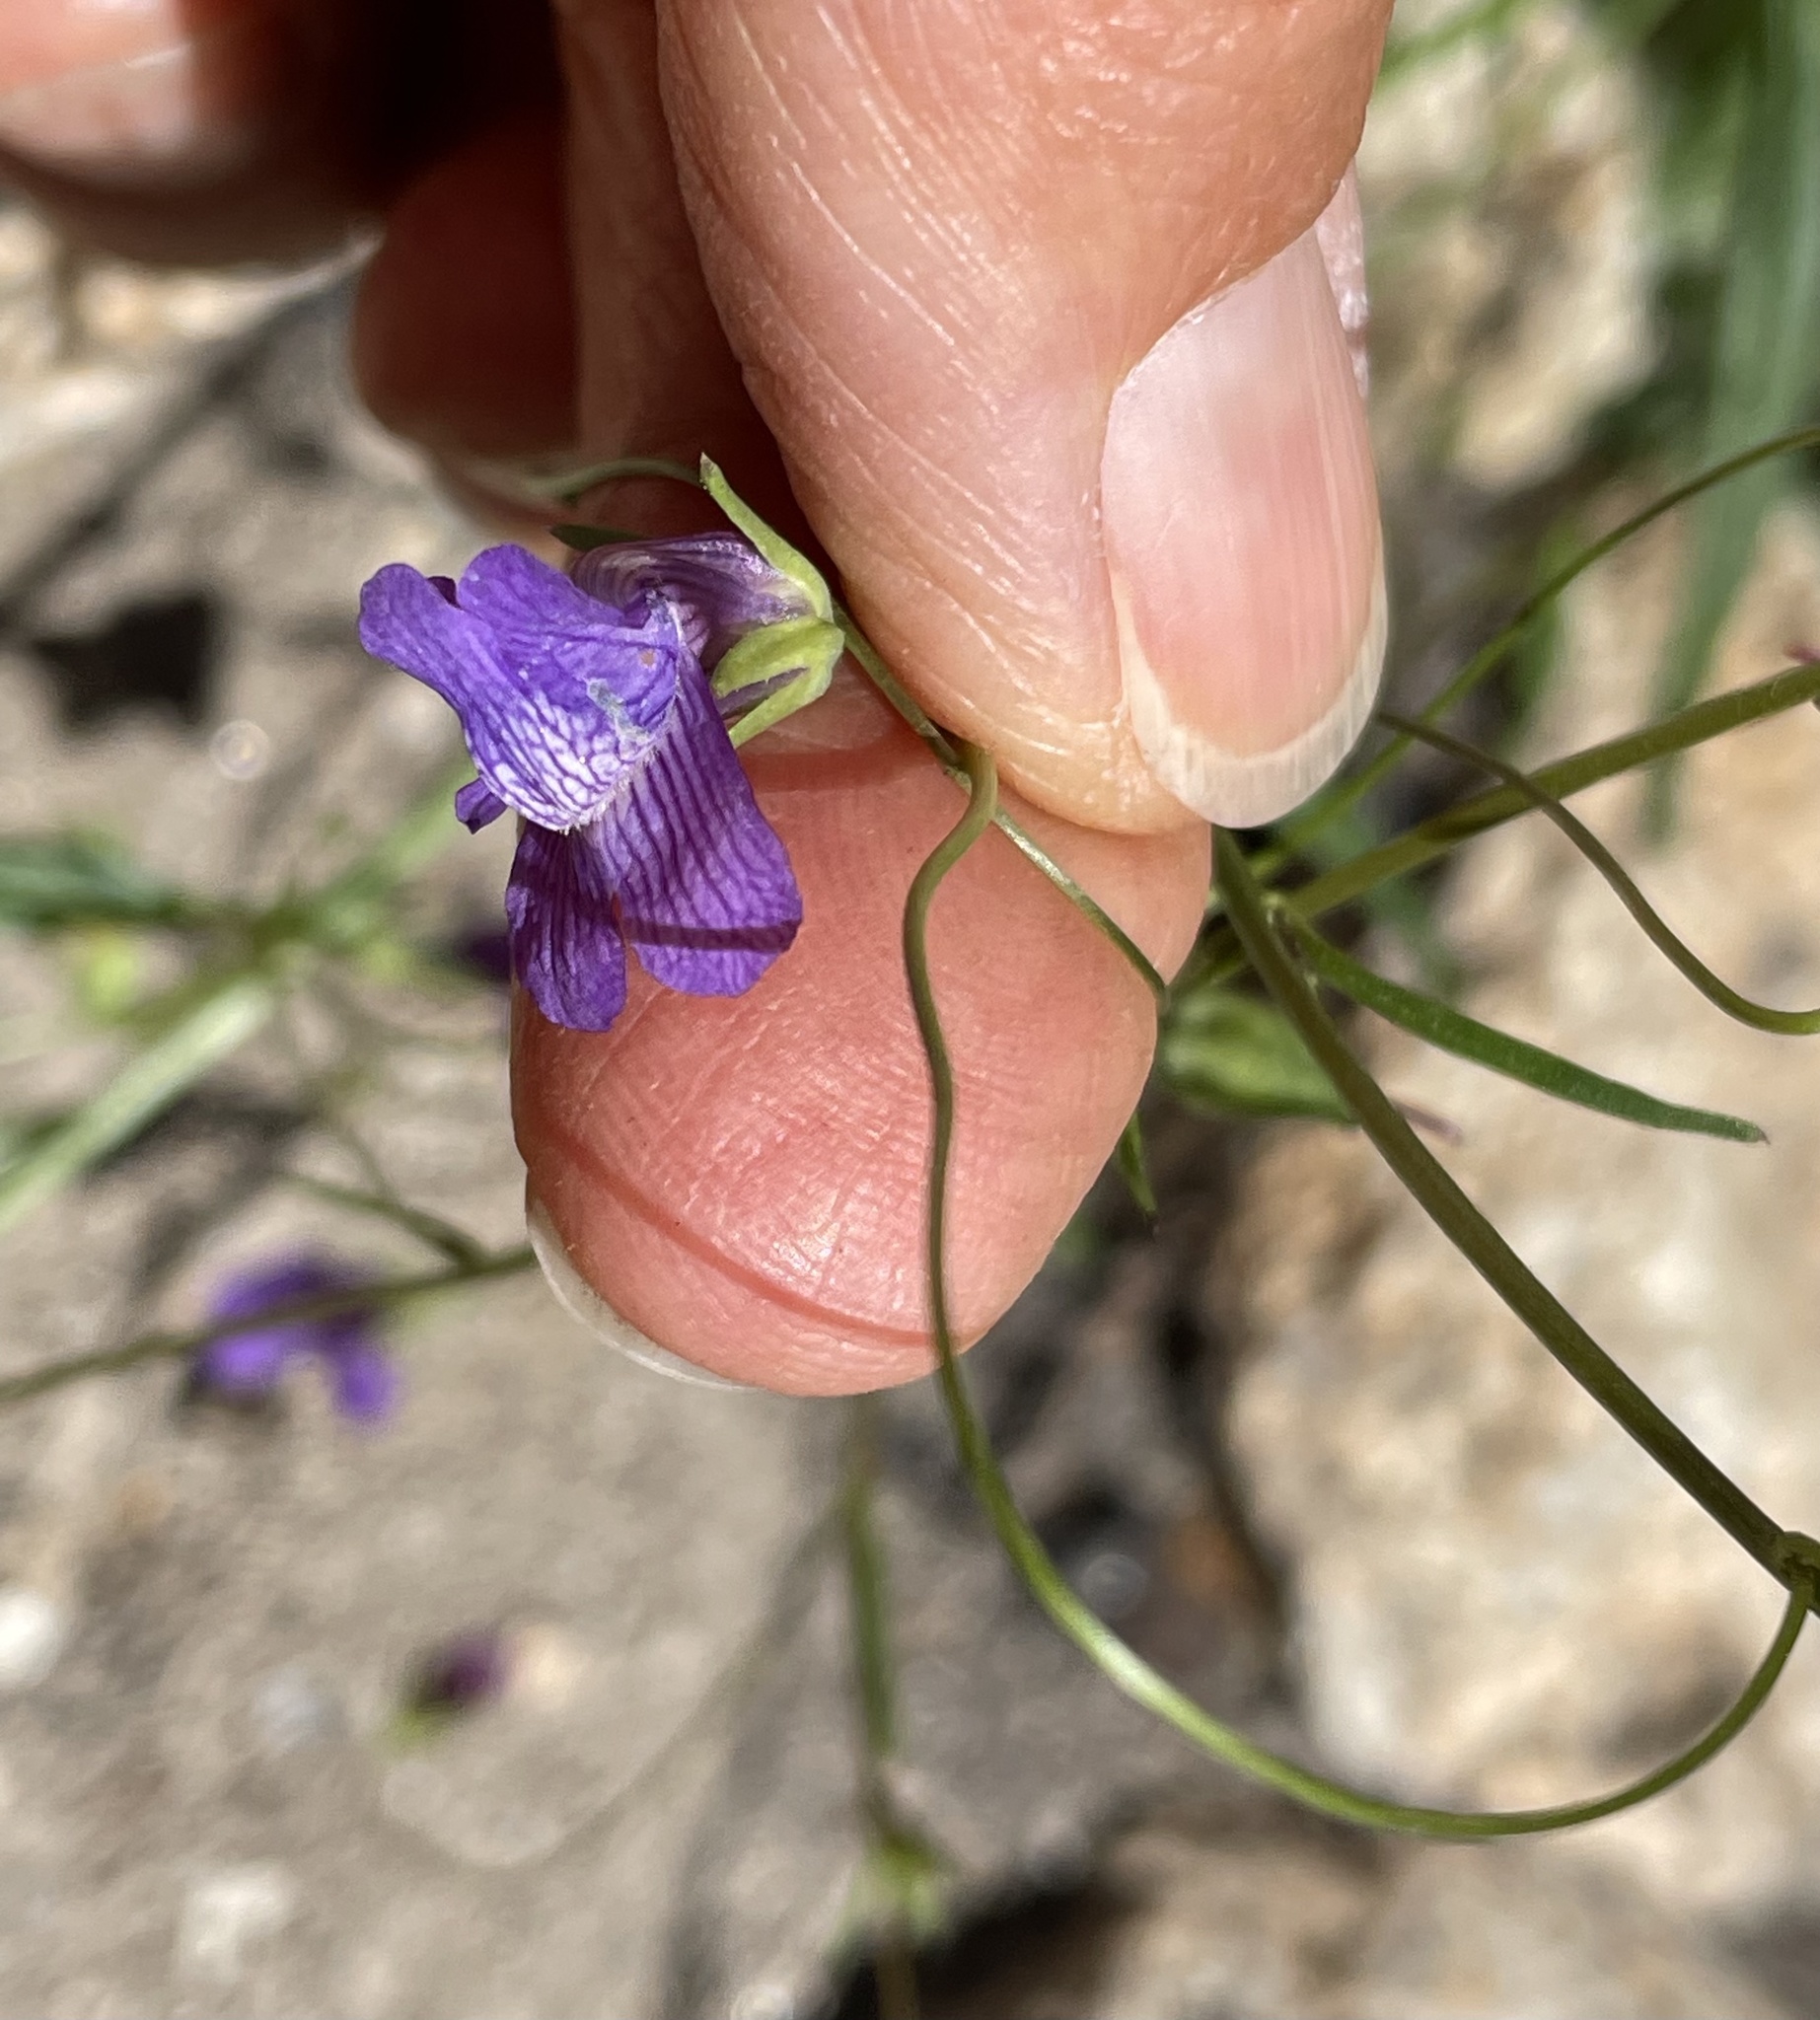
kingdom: Plantae
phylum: Tracheophyta
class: Magnoliopsida
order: Lamiales
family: Plantaginaceae
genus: Neogaerrhinum
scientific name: Neogaerrhinum strictum
